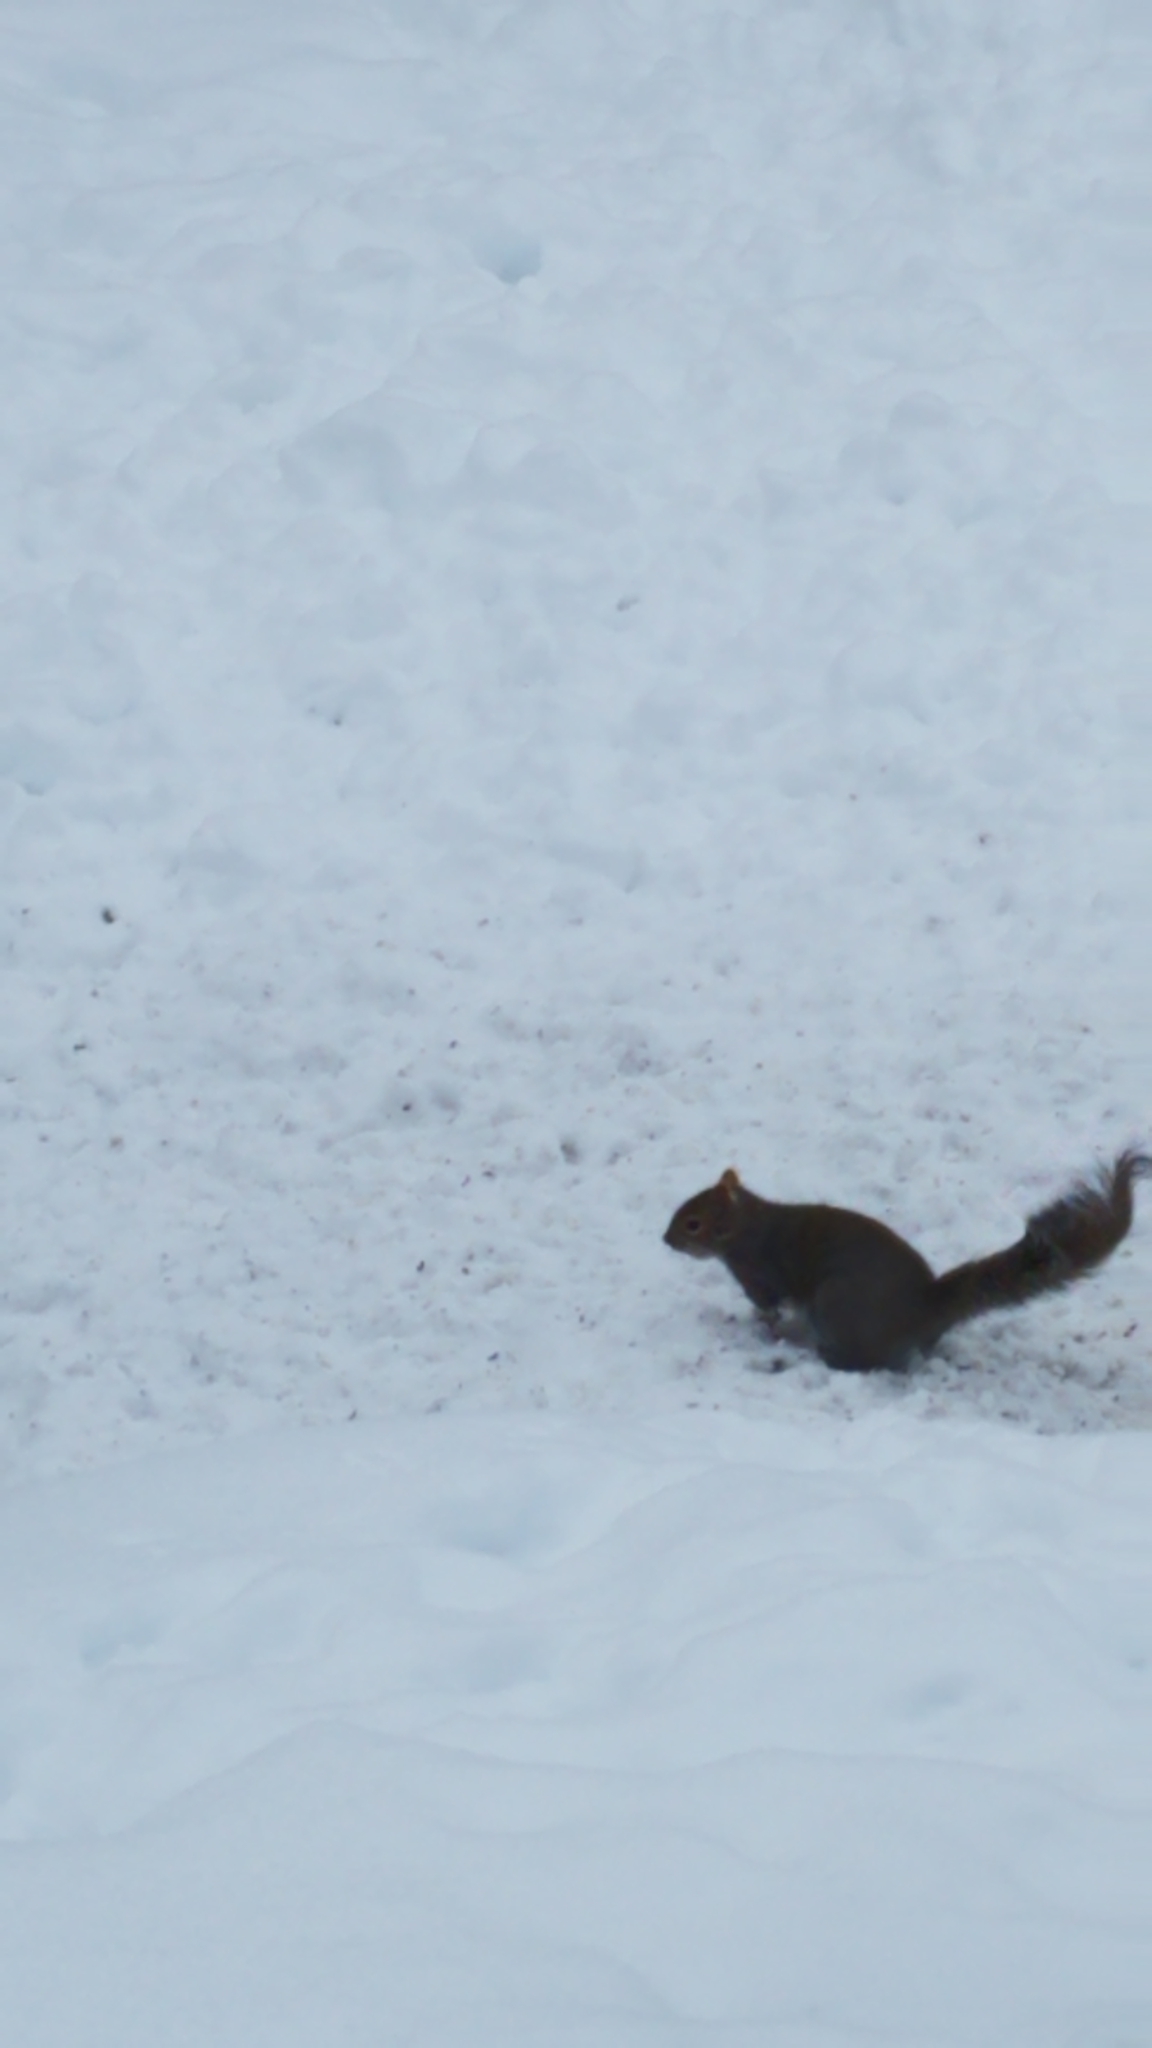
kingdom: Animalia
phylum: Chordata
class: Mammalia
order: Rodentia
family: Sciuridae
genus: Sciurus
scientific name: Sciurus carolinensis
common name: Eastern gray squirrel
